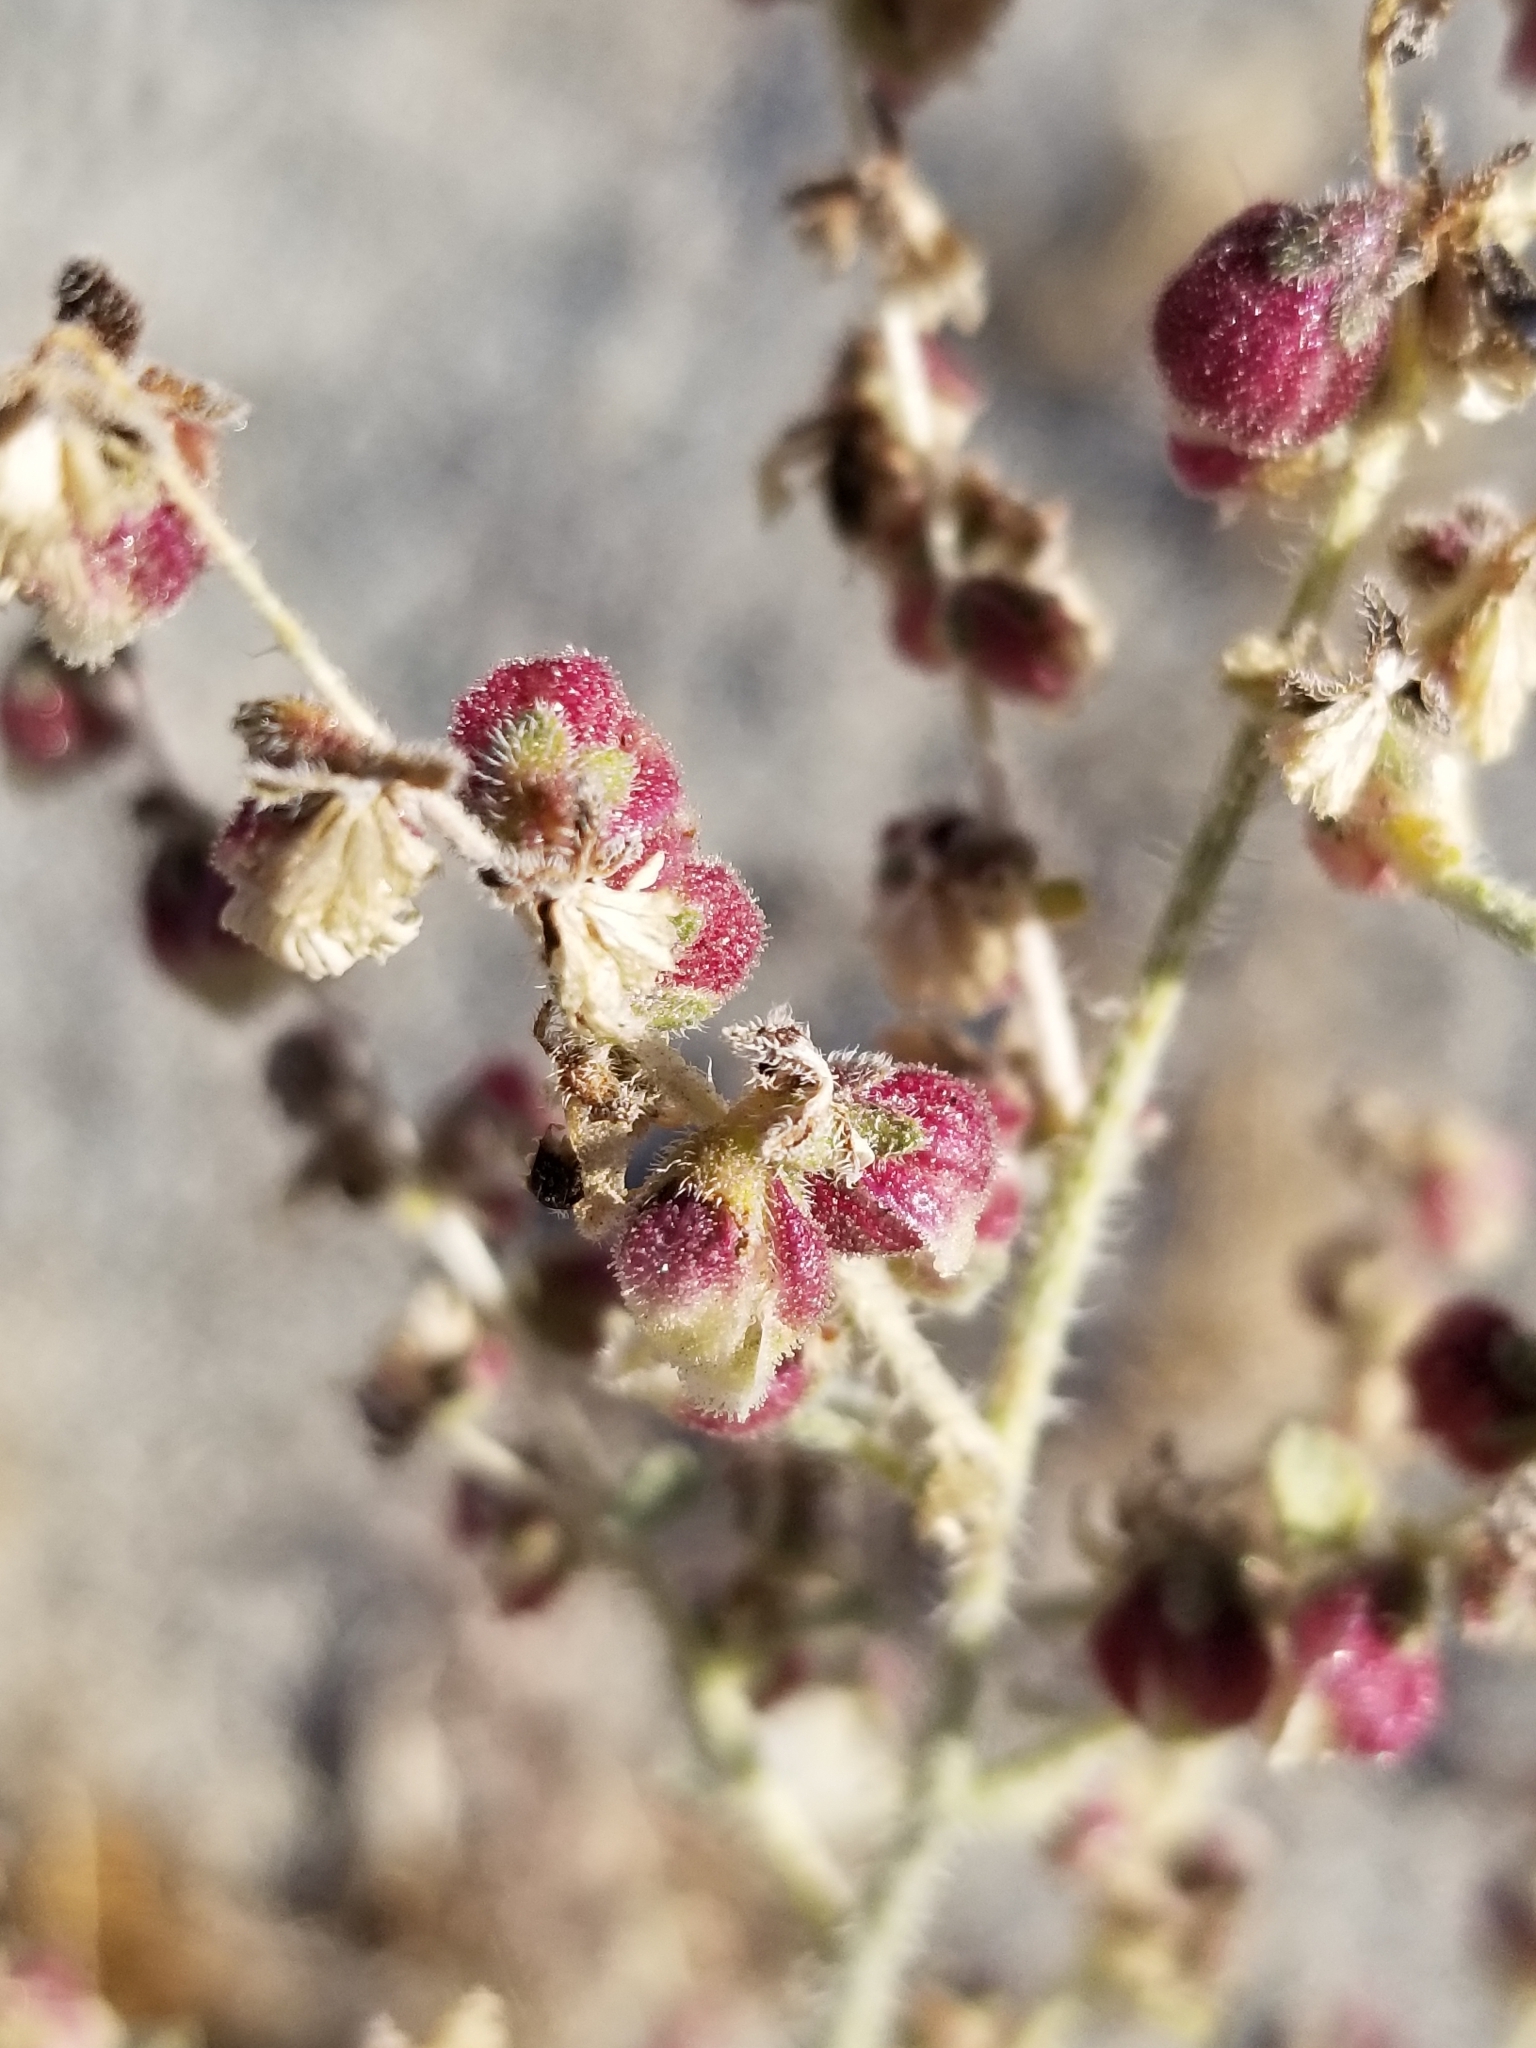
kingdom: Plantae
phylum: Tracheophyta
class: Magnoliopsida
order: Asterales
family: Asteraceae
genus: Dicoria
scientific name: Dicoria canescens
